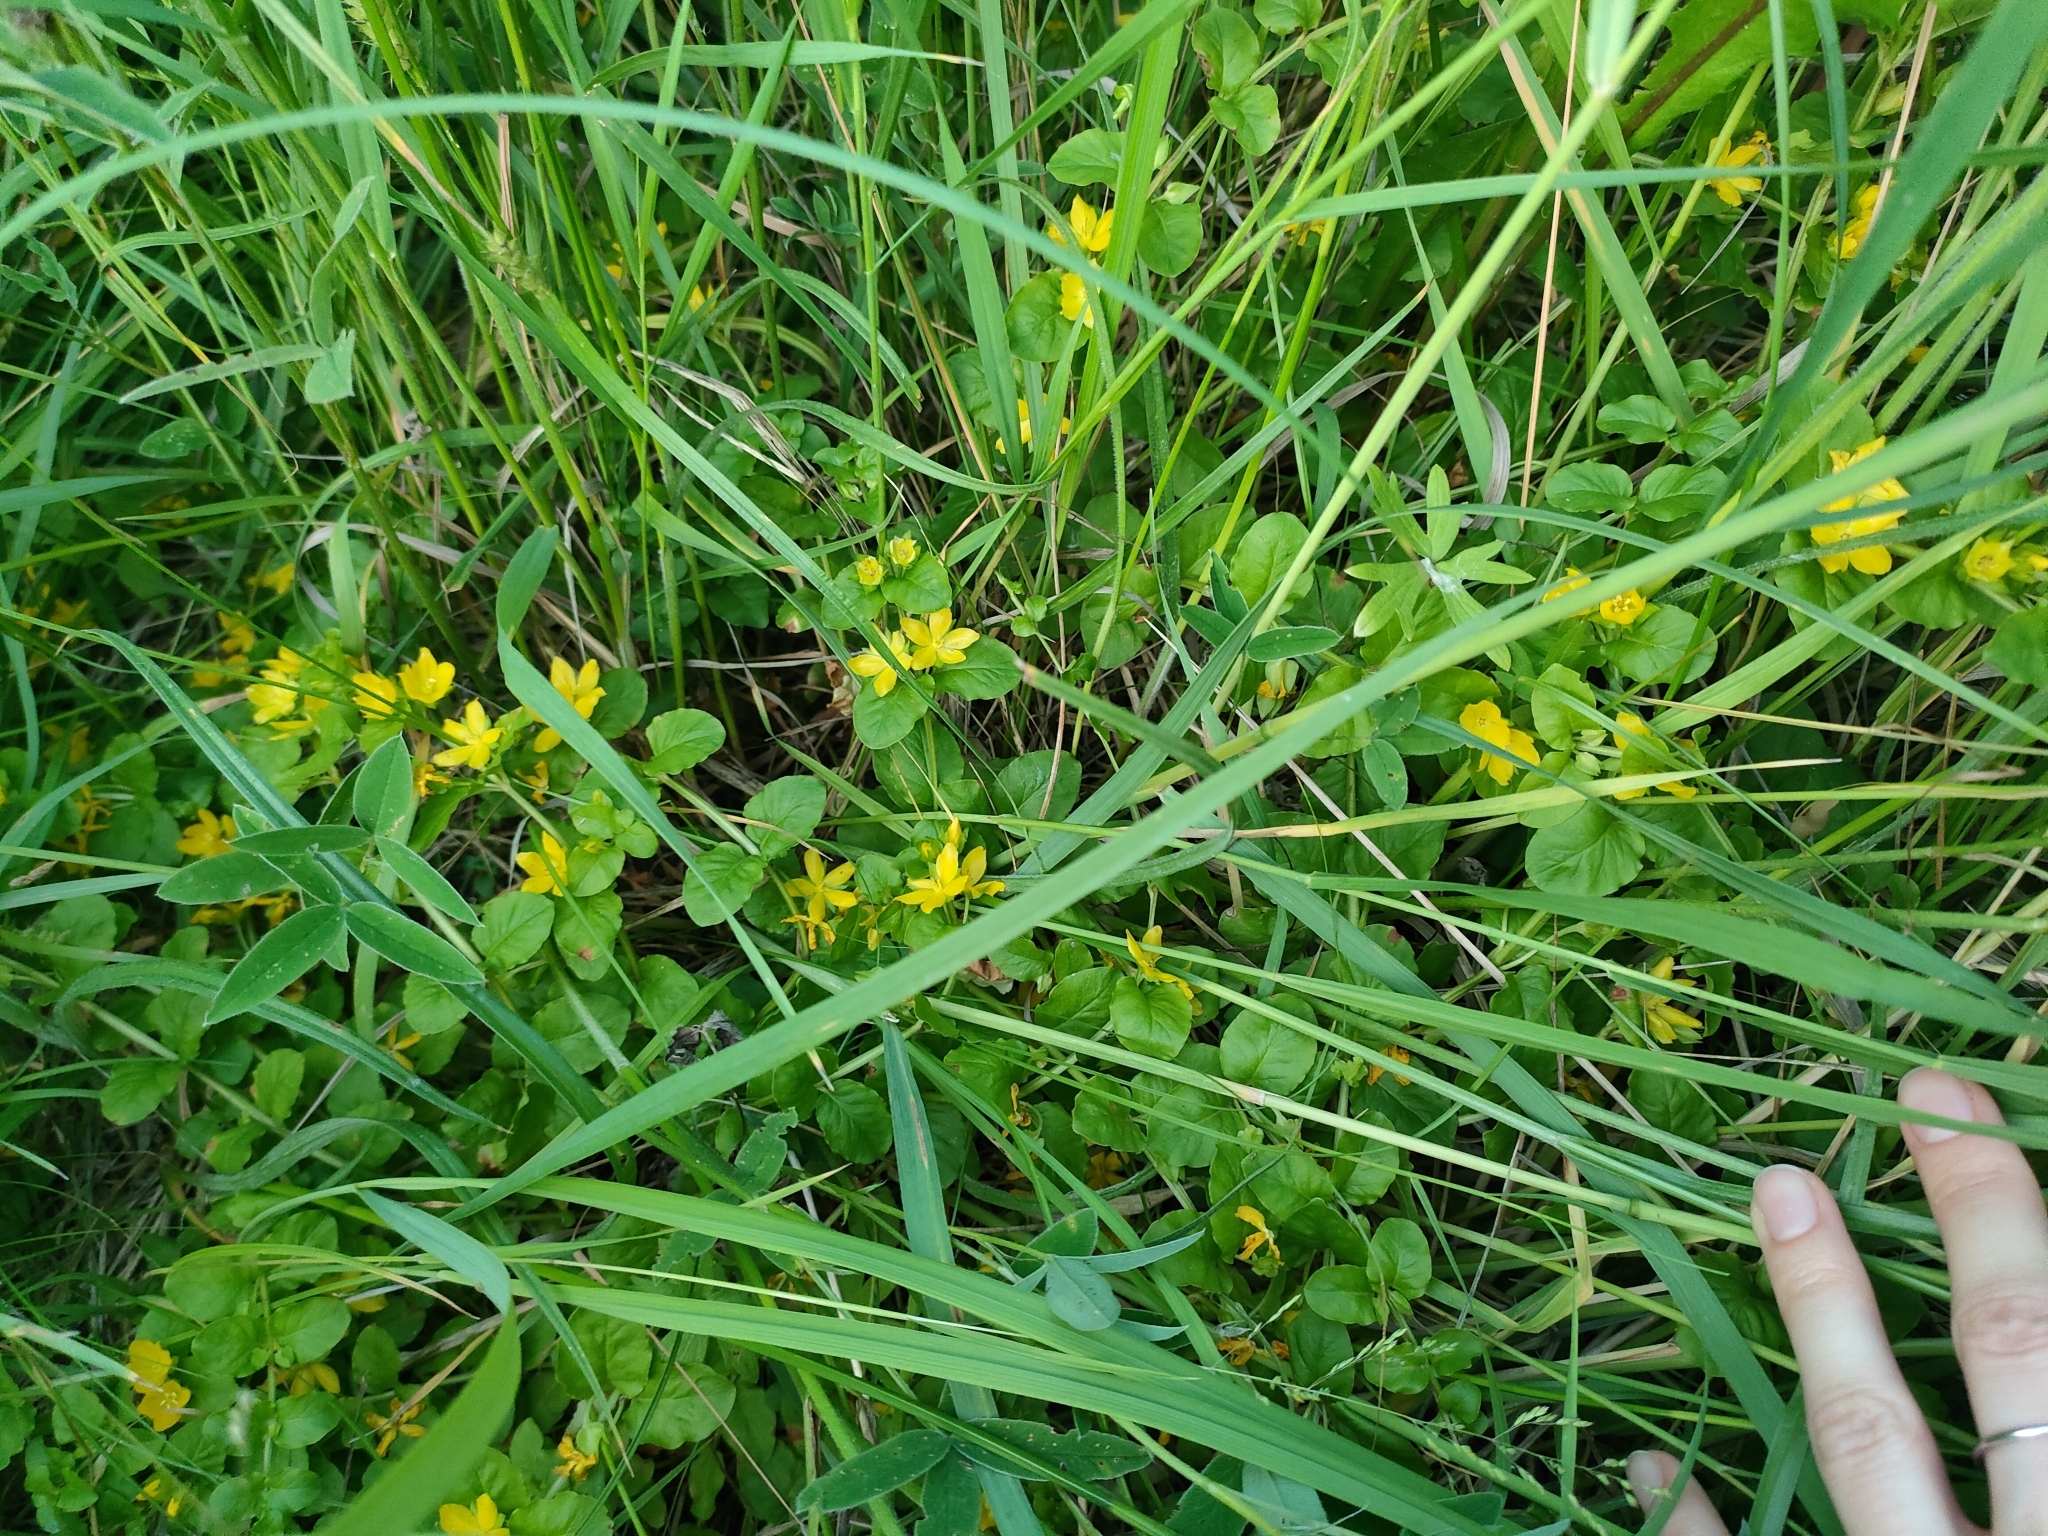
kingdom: Plantae
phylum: Tracheophyta
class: Magnoliopsida
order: Ericales
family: Primulaceae
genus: Lysimachia
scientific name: Lysimachia nummularia
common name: Moneywort
